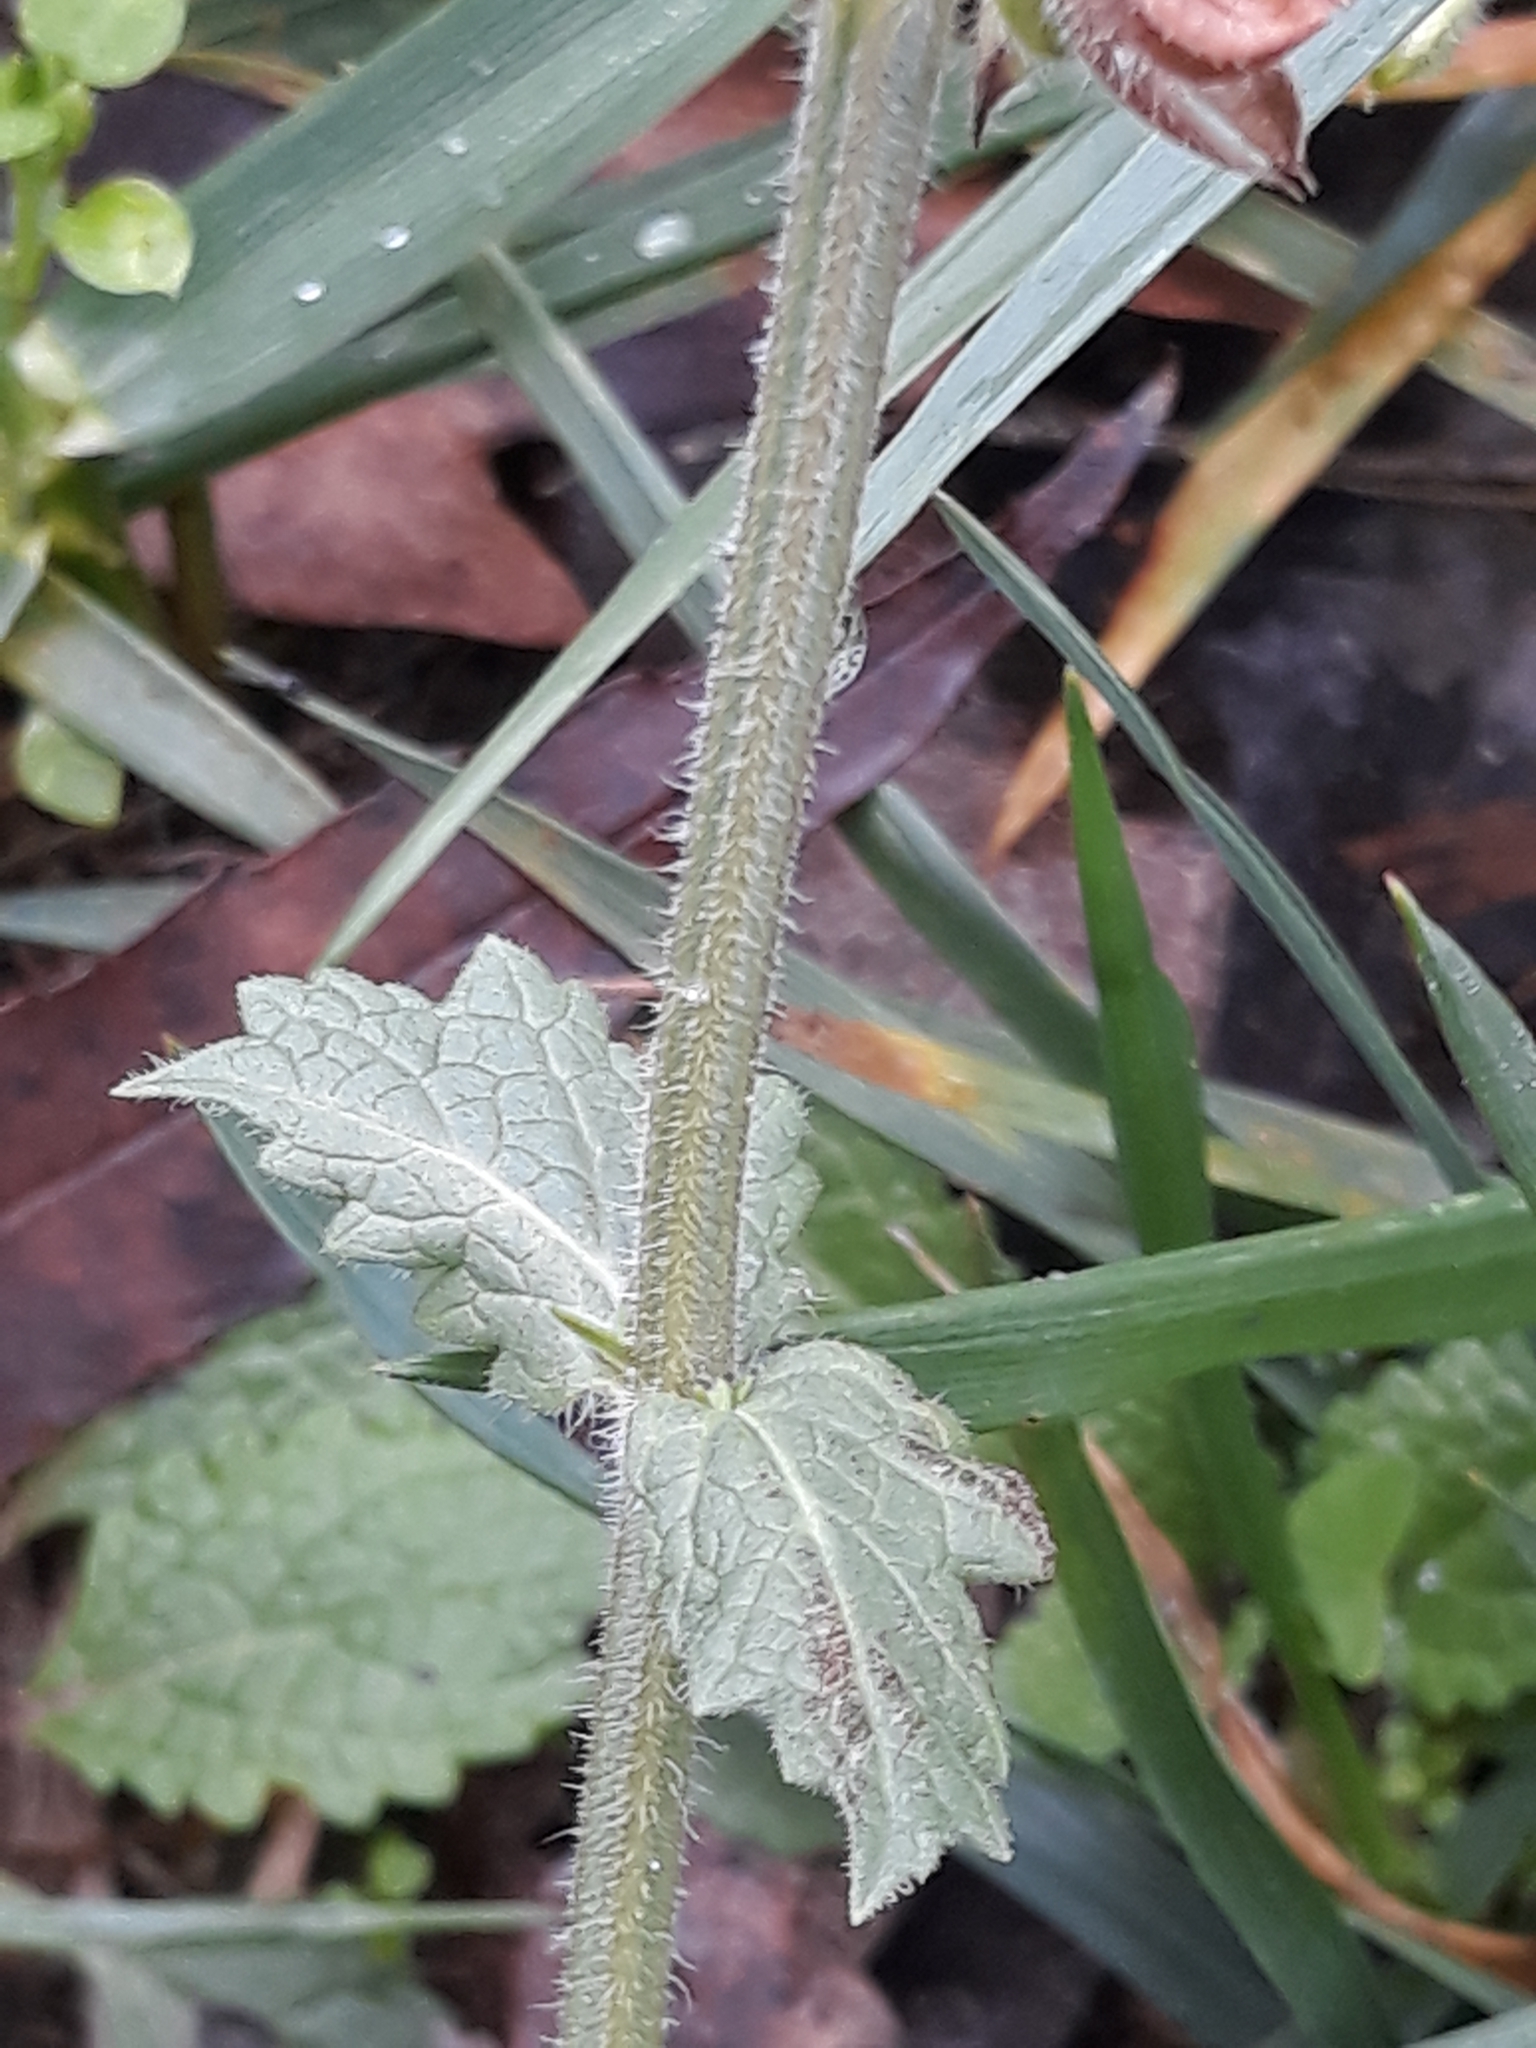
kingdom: Plantae
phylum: Tracheophyta
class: Magnoliopsida
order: Lamiales
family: Lamiaceae
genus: Salvia
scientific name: Salvia verbenaca
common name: Wild clary
